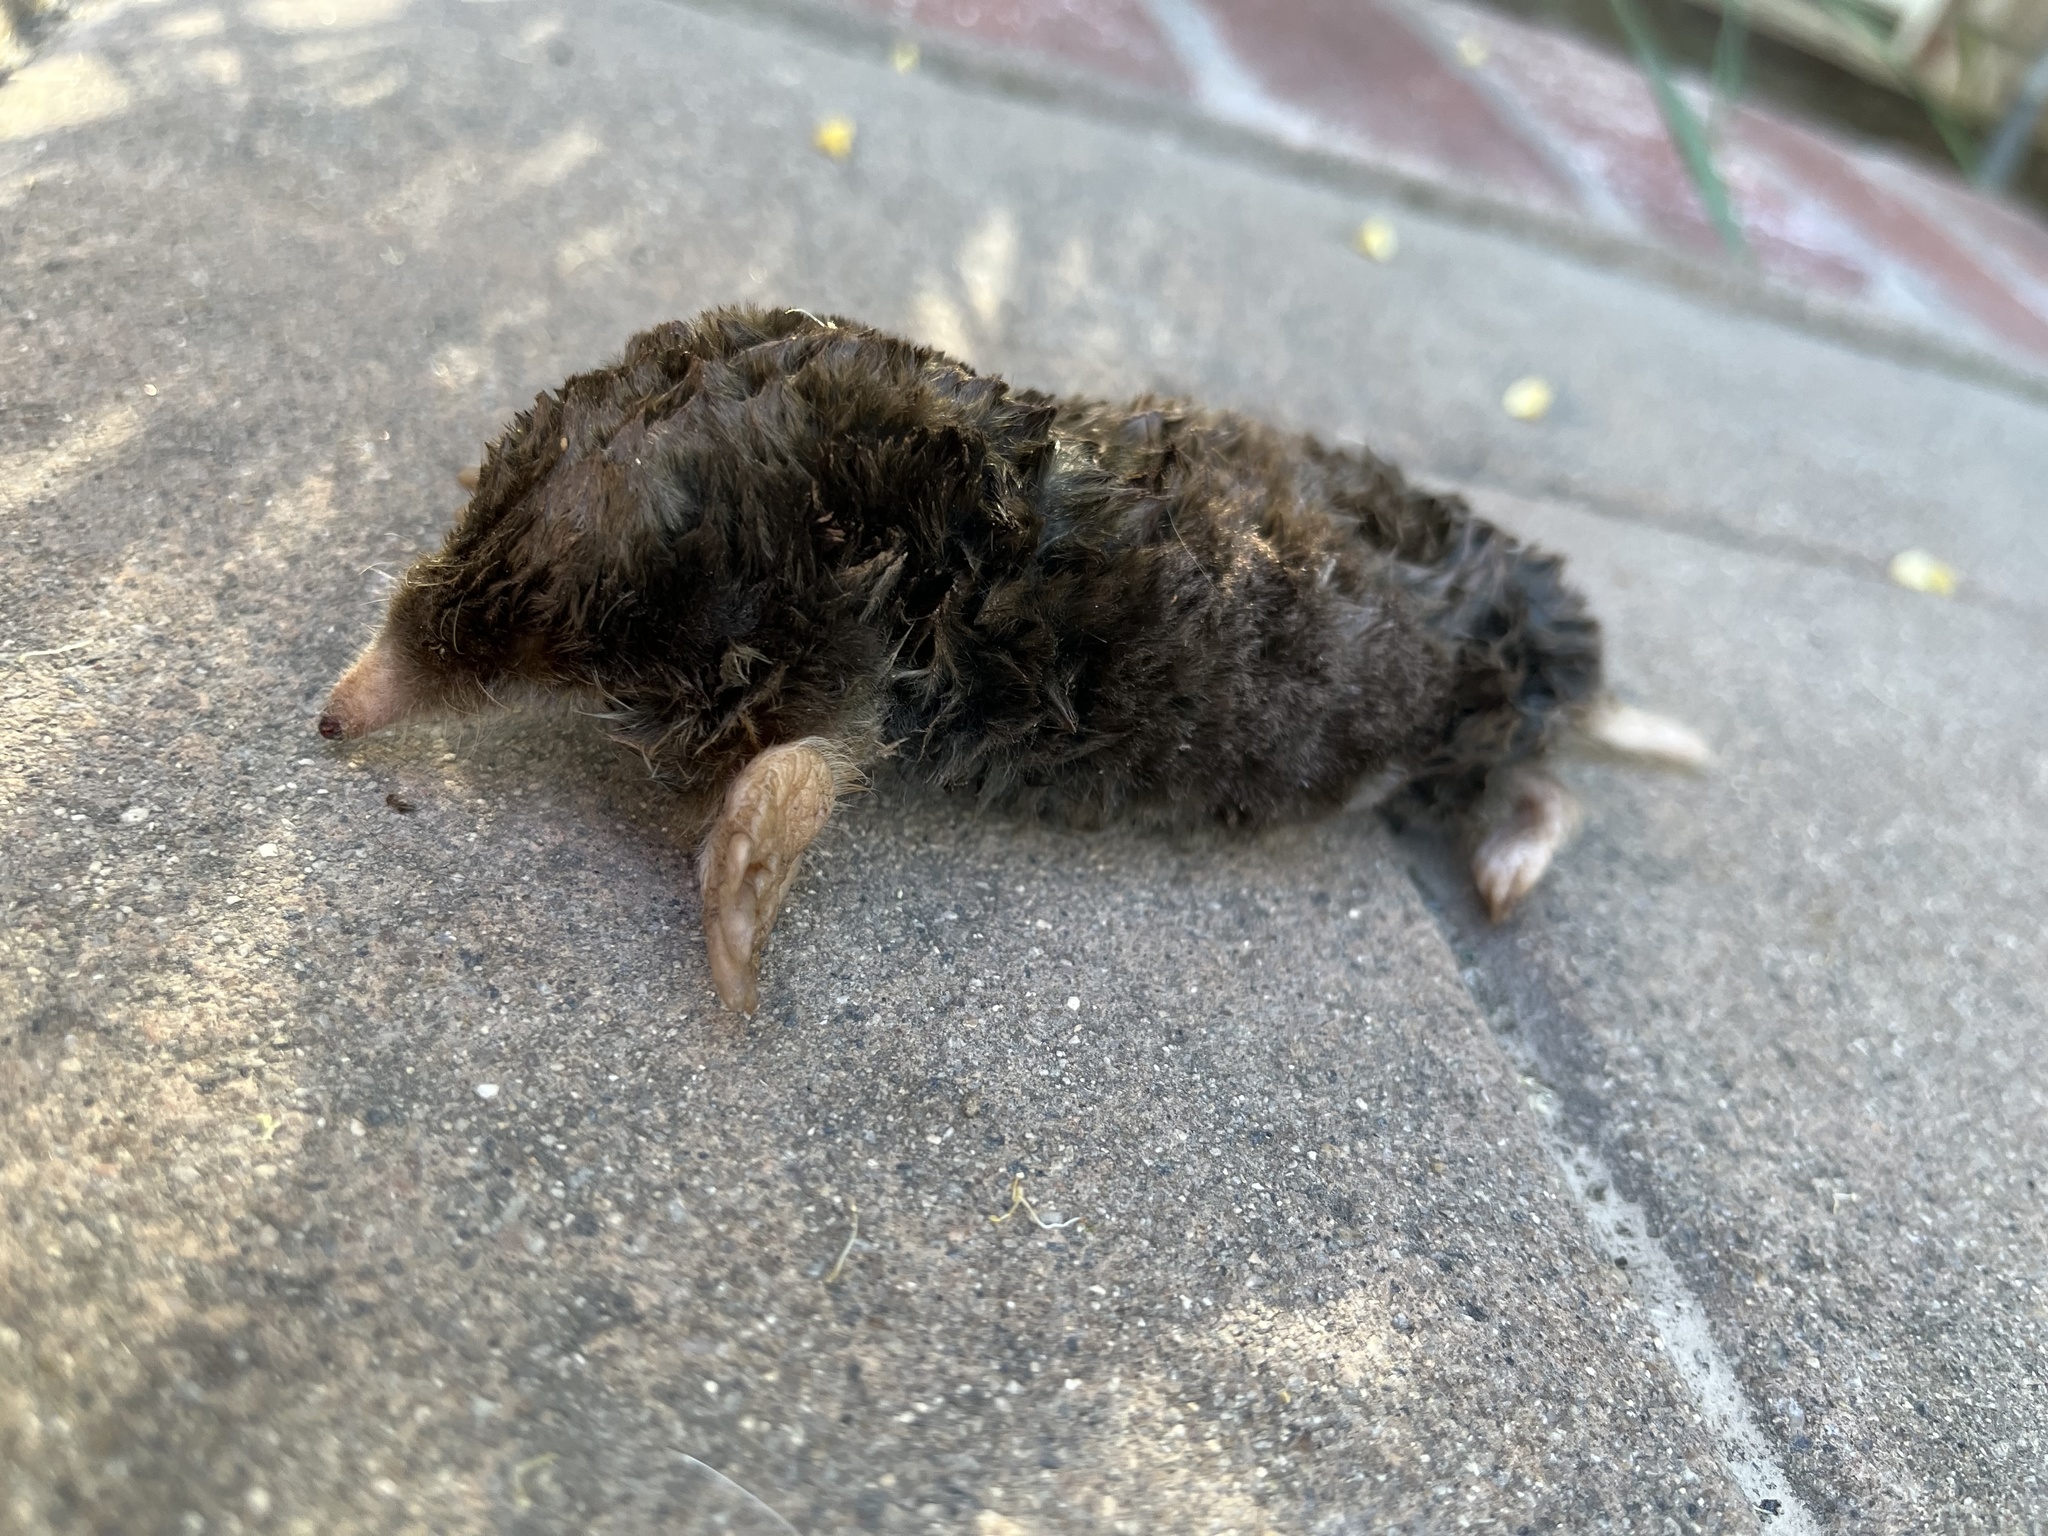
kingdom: Animalia
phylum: Chordata
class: Mammalia
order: Soricomorpha
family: Talpidae
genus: Scapanus
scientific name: Scapanus latimanus
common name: Broad-footed mole
